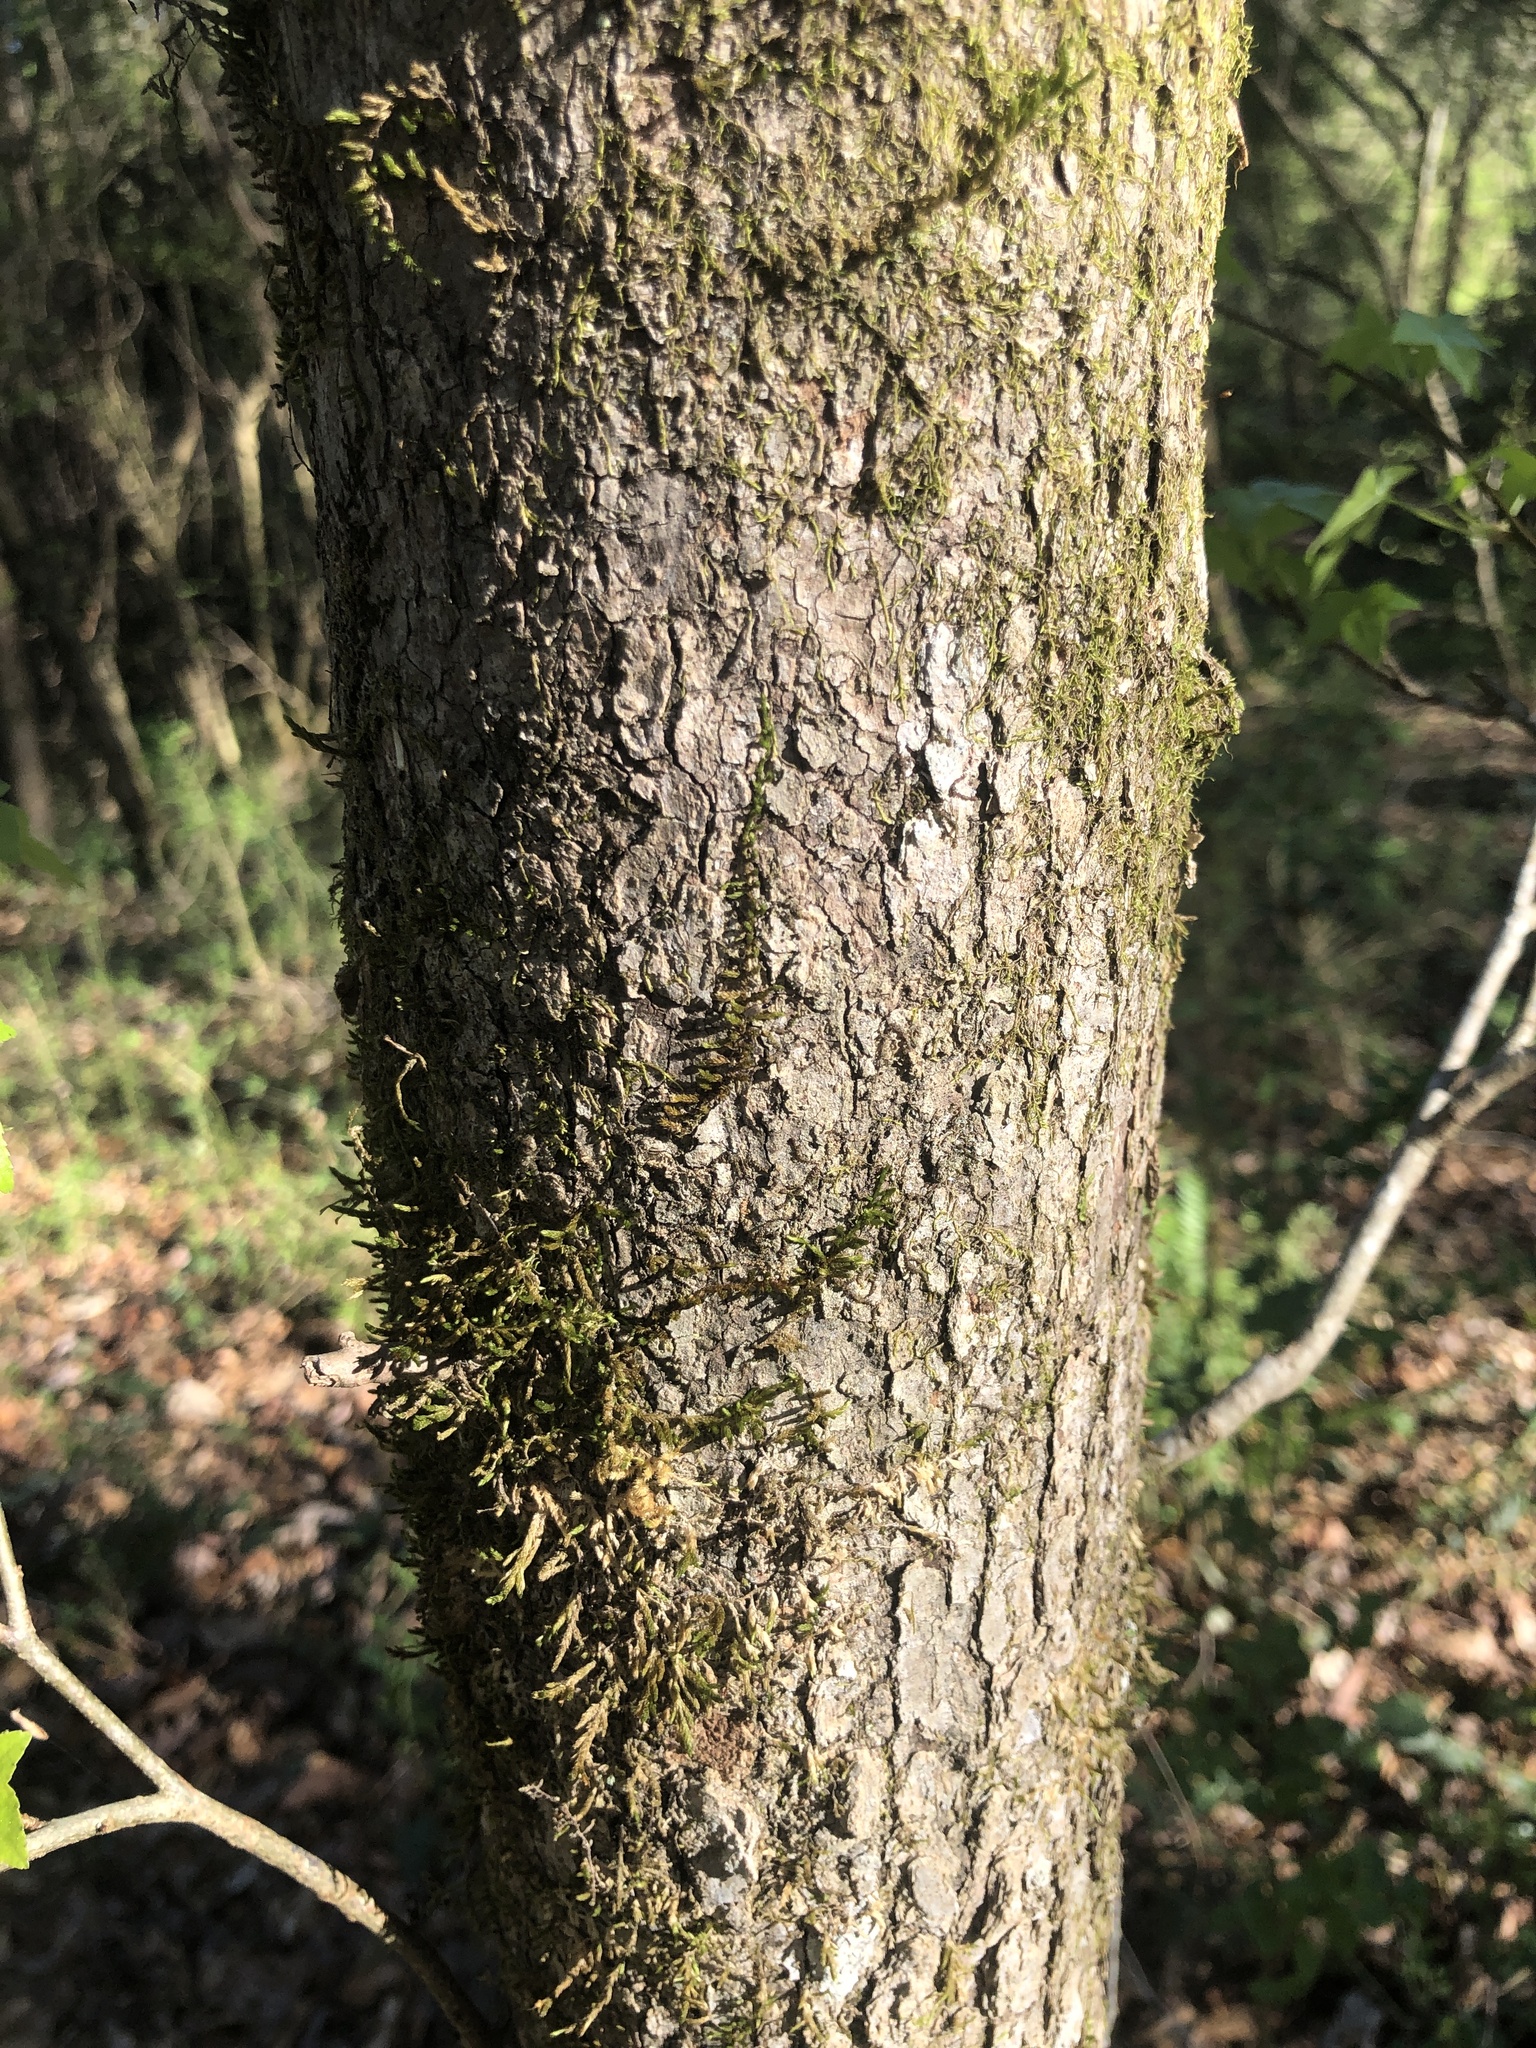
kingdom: Plantae
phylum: Tracheophyta
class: Magnoliopsida
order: Saxifragales
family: Altingiaceae
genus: Liquidambar
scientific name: Liquidambar styraciflua
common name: Sweet gum
